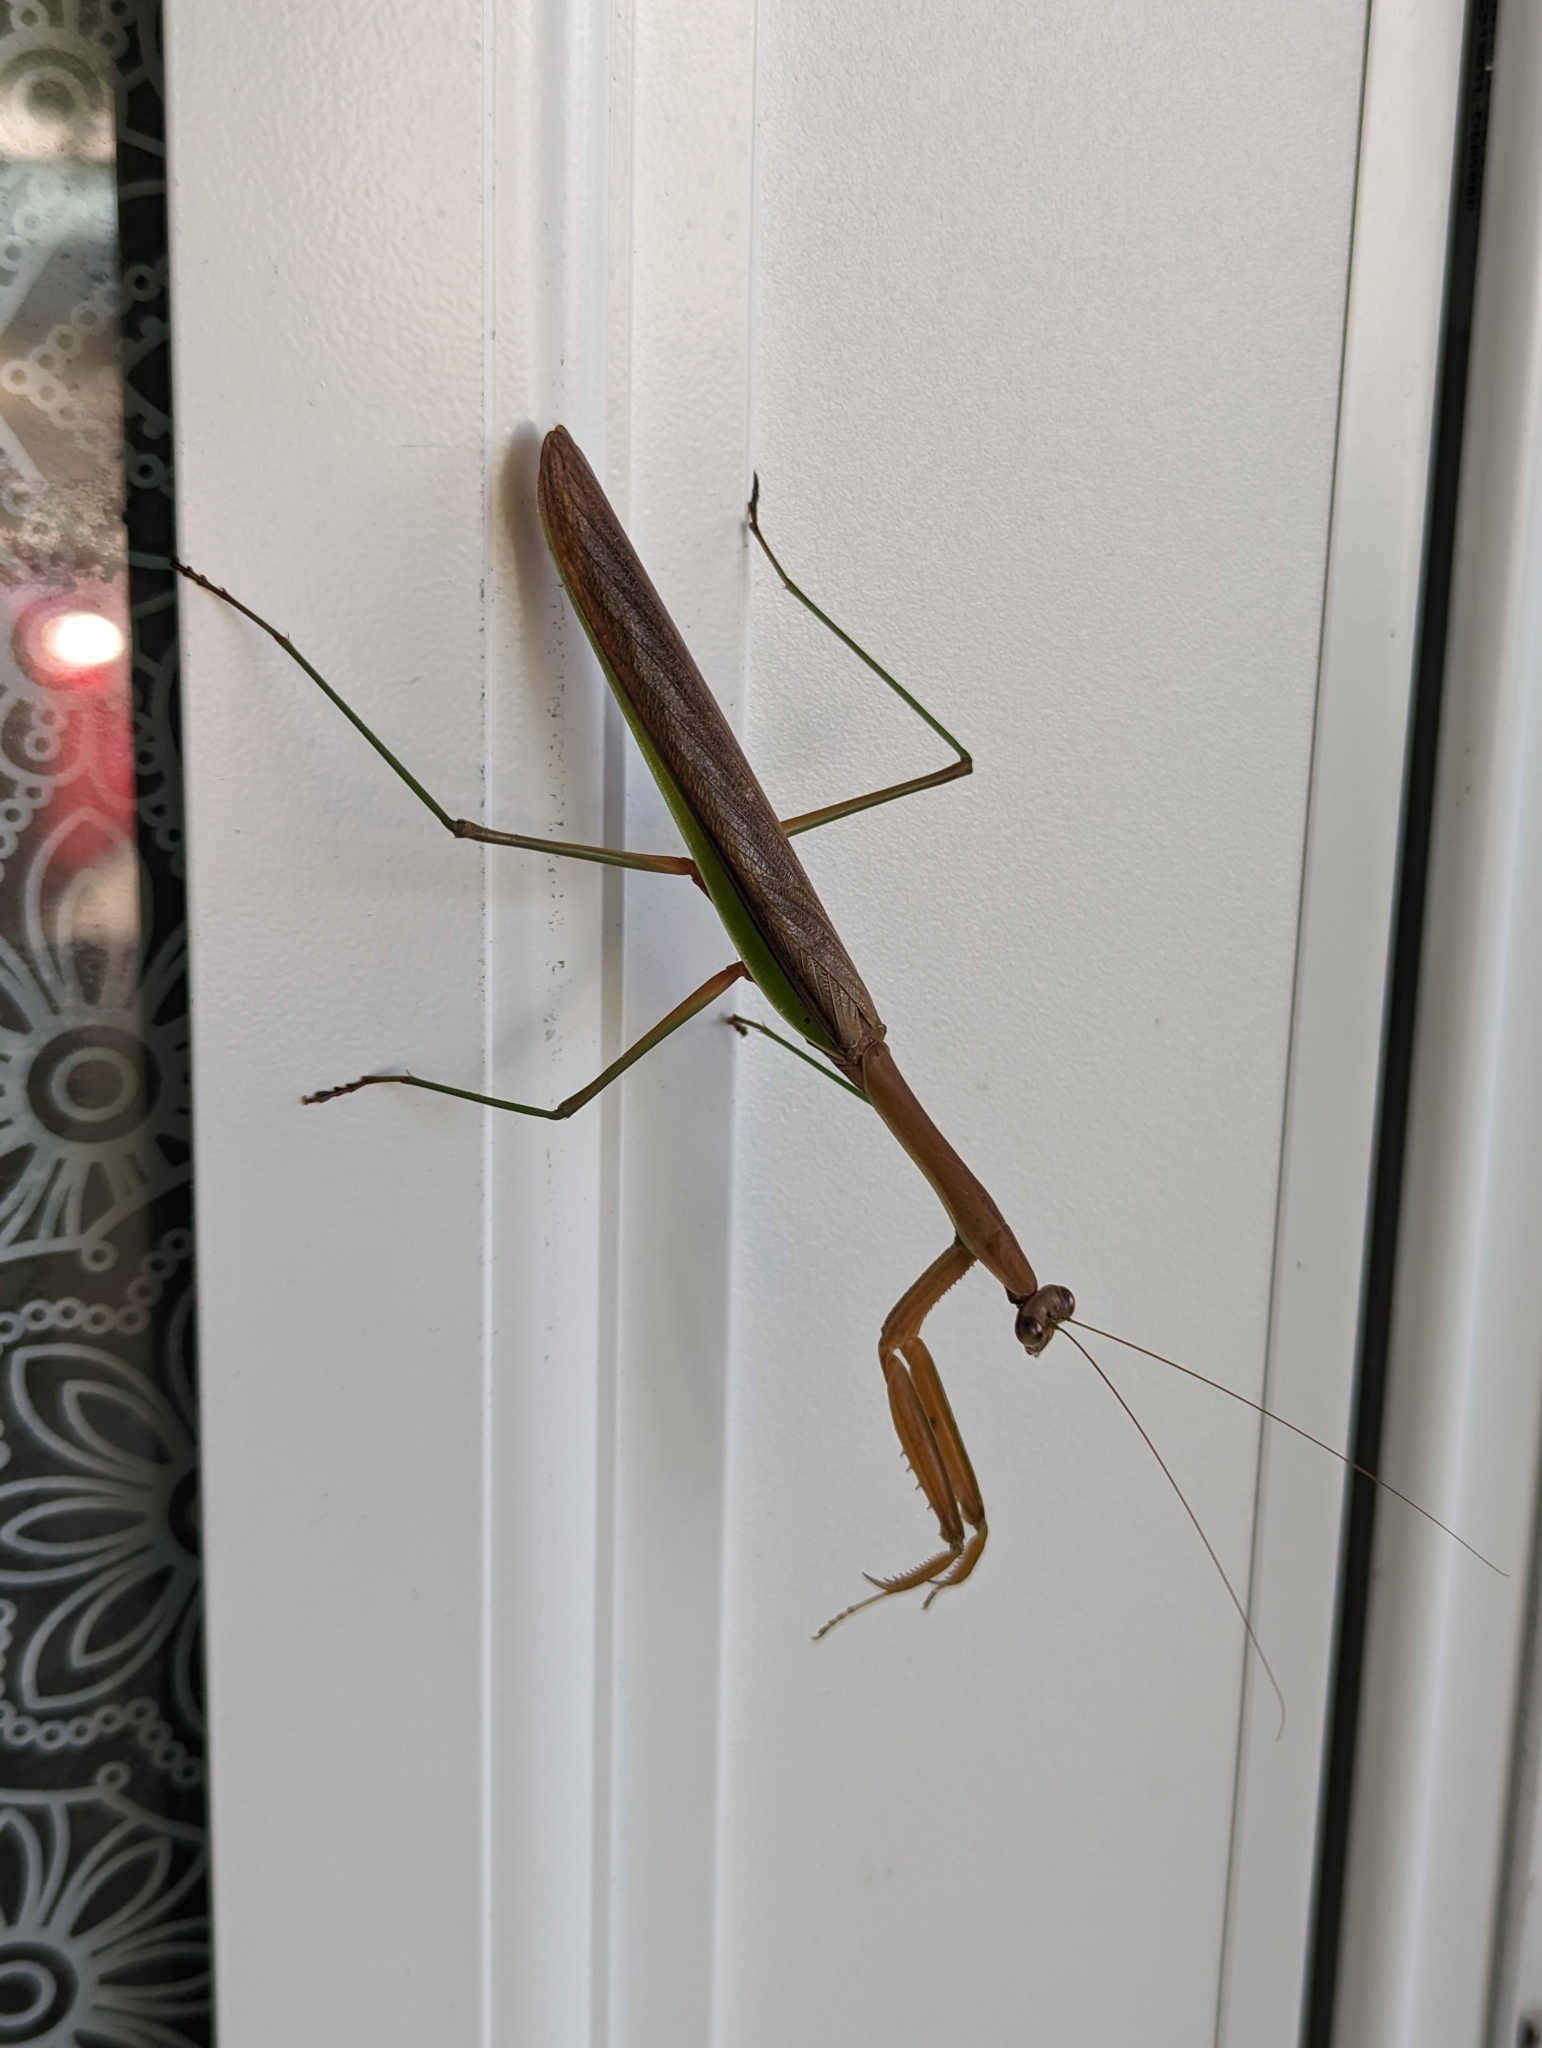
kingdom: Animalia
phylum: Arthropoda
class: Insecta
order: Mantodea
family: Mantidae
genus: Tenodera
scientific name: Tenodera sinensis
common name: Chinese mantis
